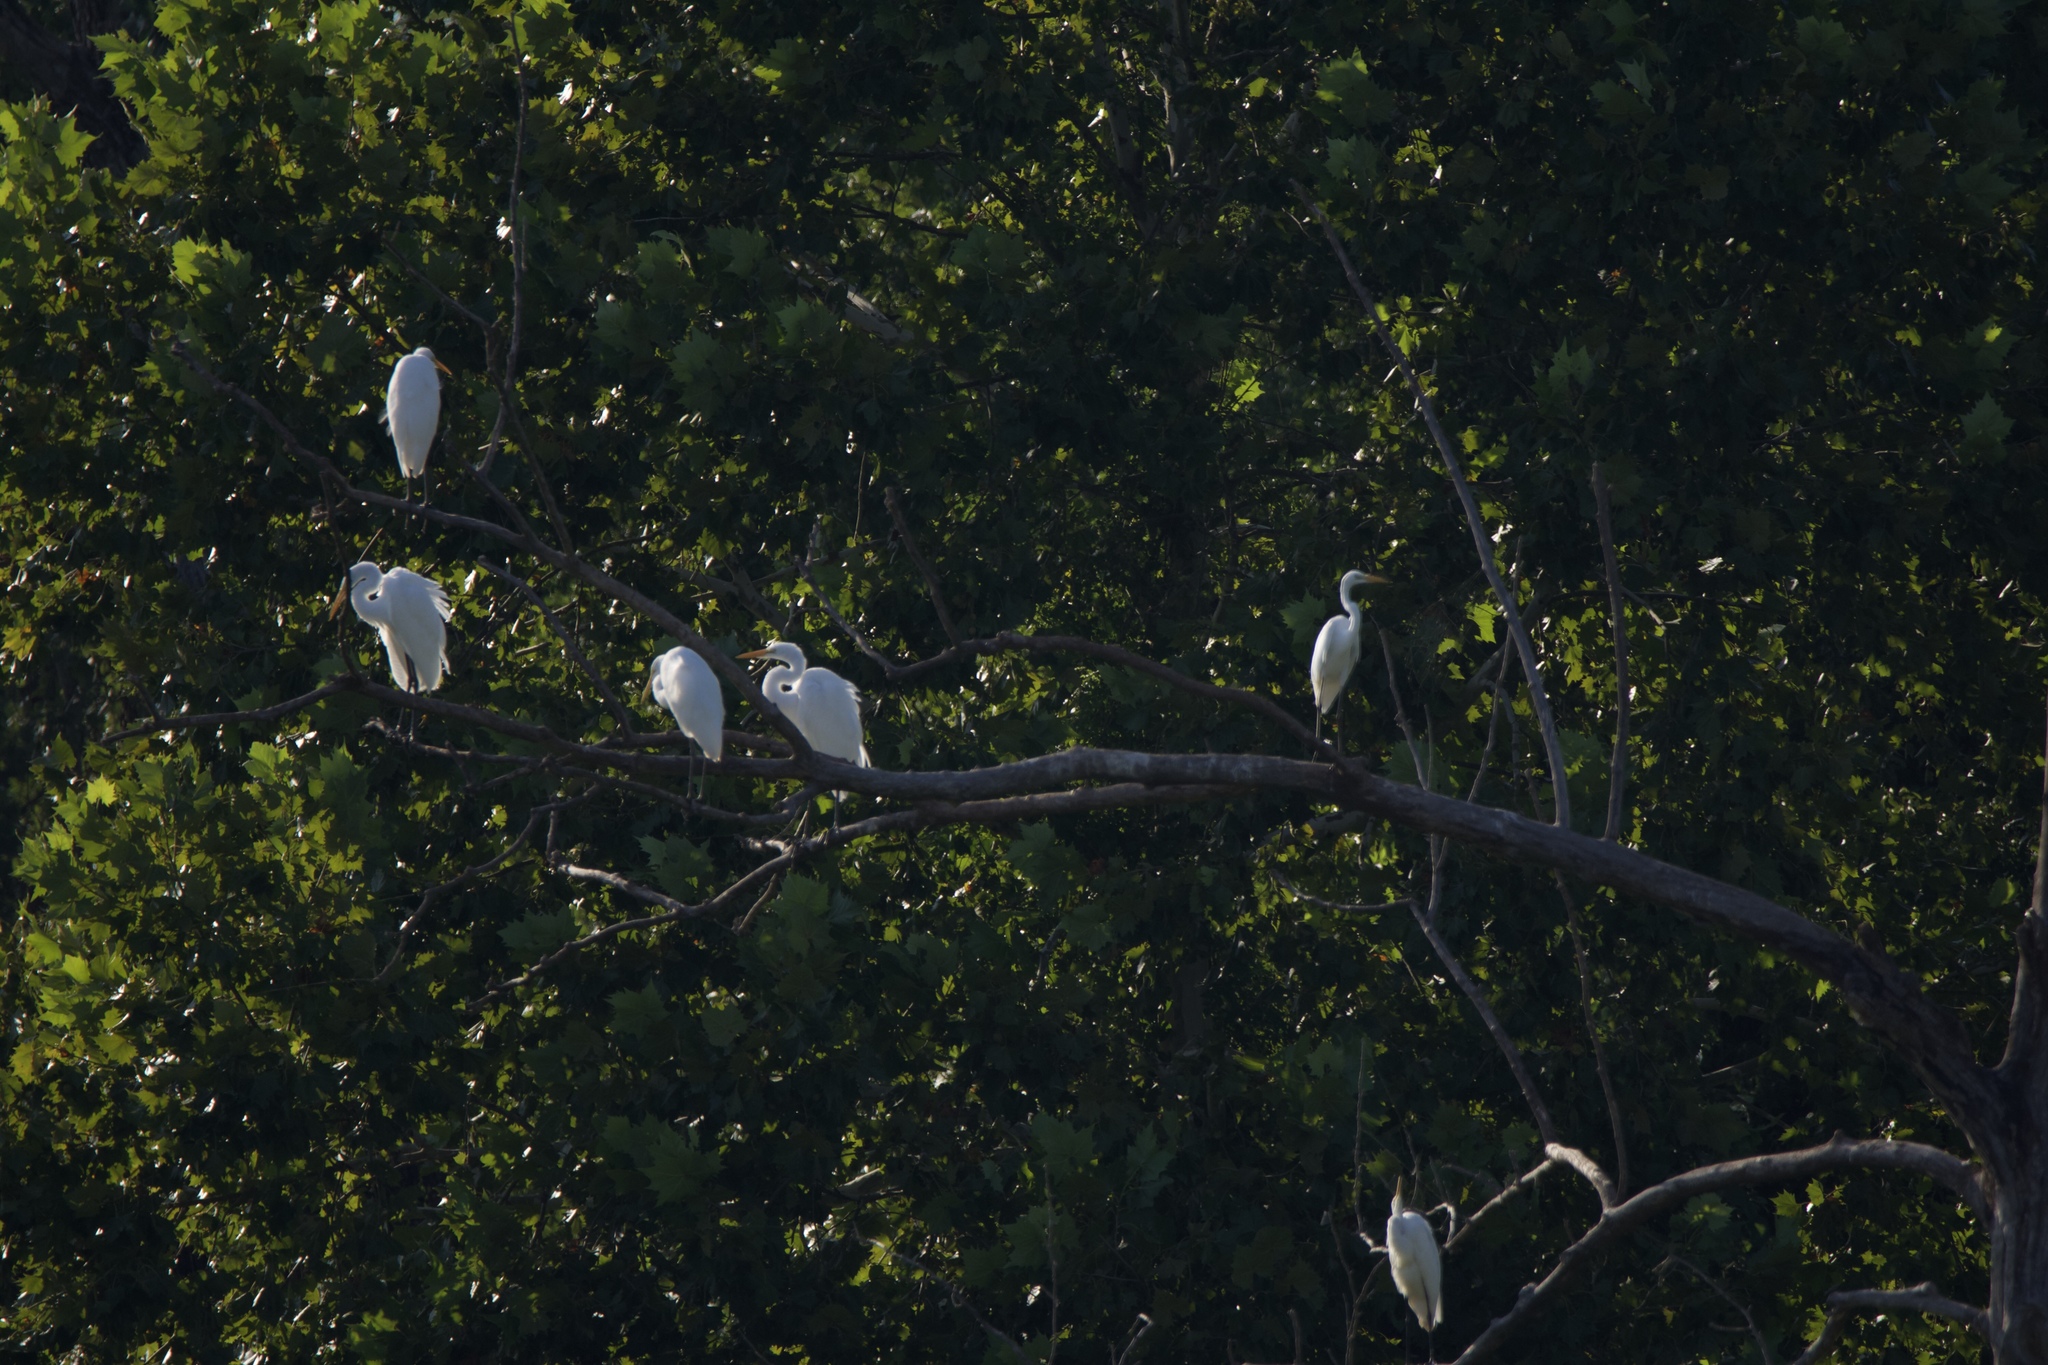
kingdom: Animalia
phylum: Chordata
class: Aves
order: Pelecaniformes
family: Ardeidae
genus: Ardea
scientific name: Ardea alba
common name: Great egret
